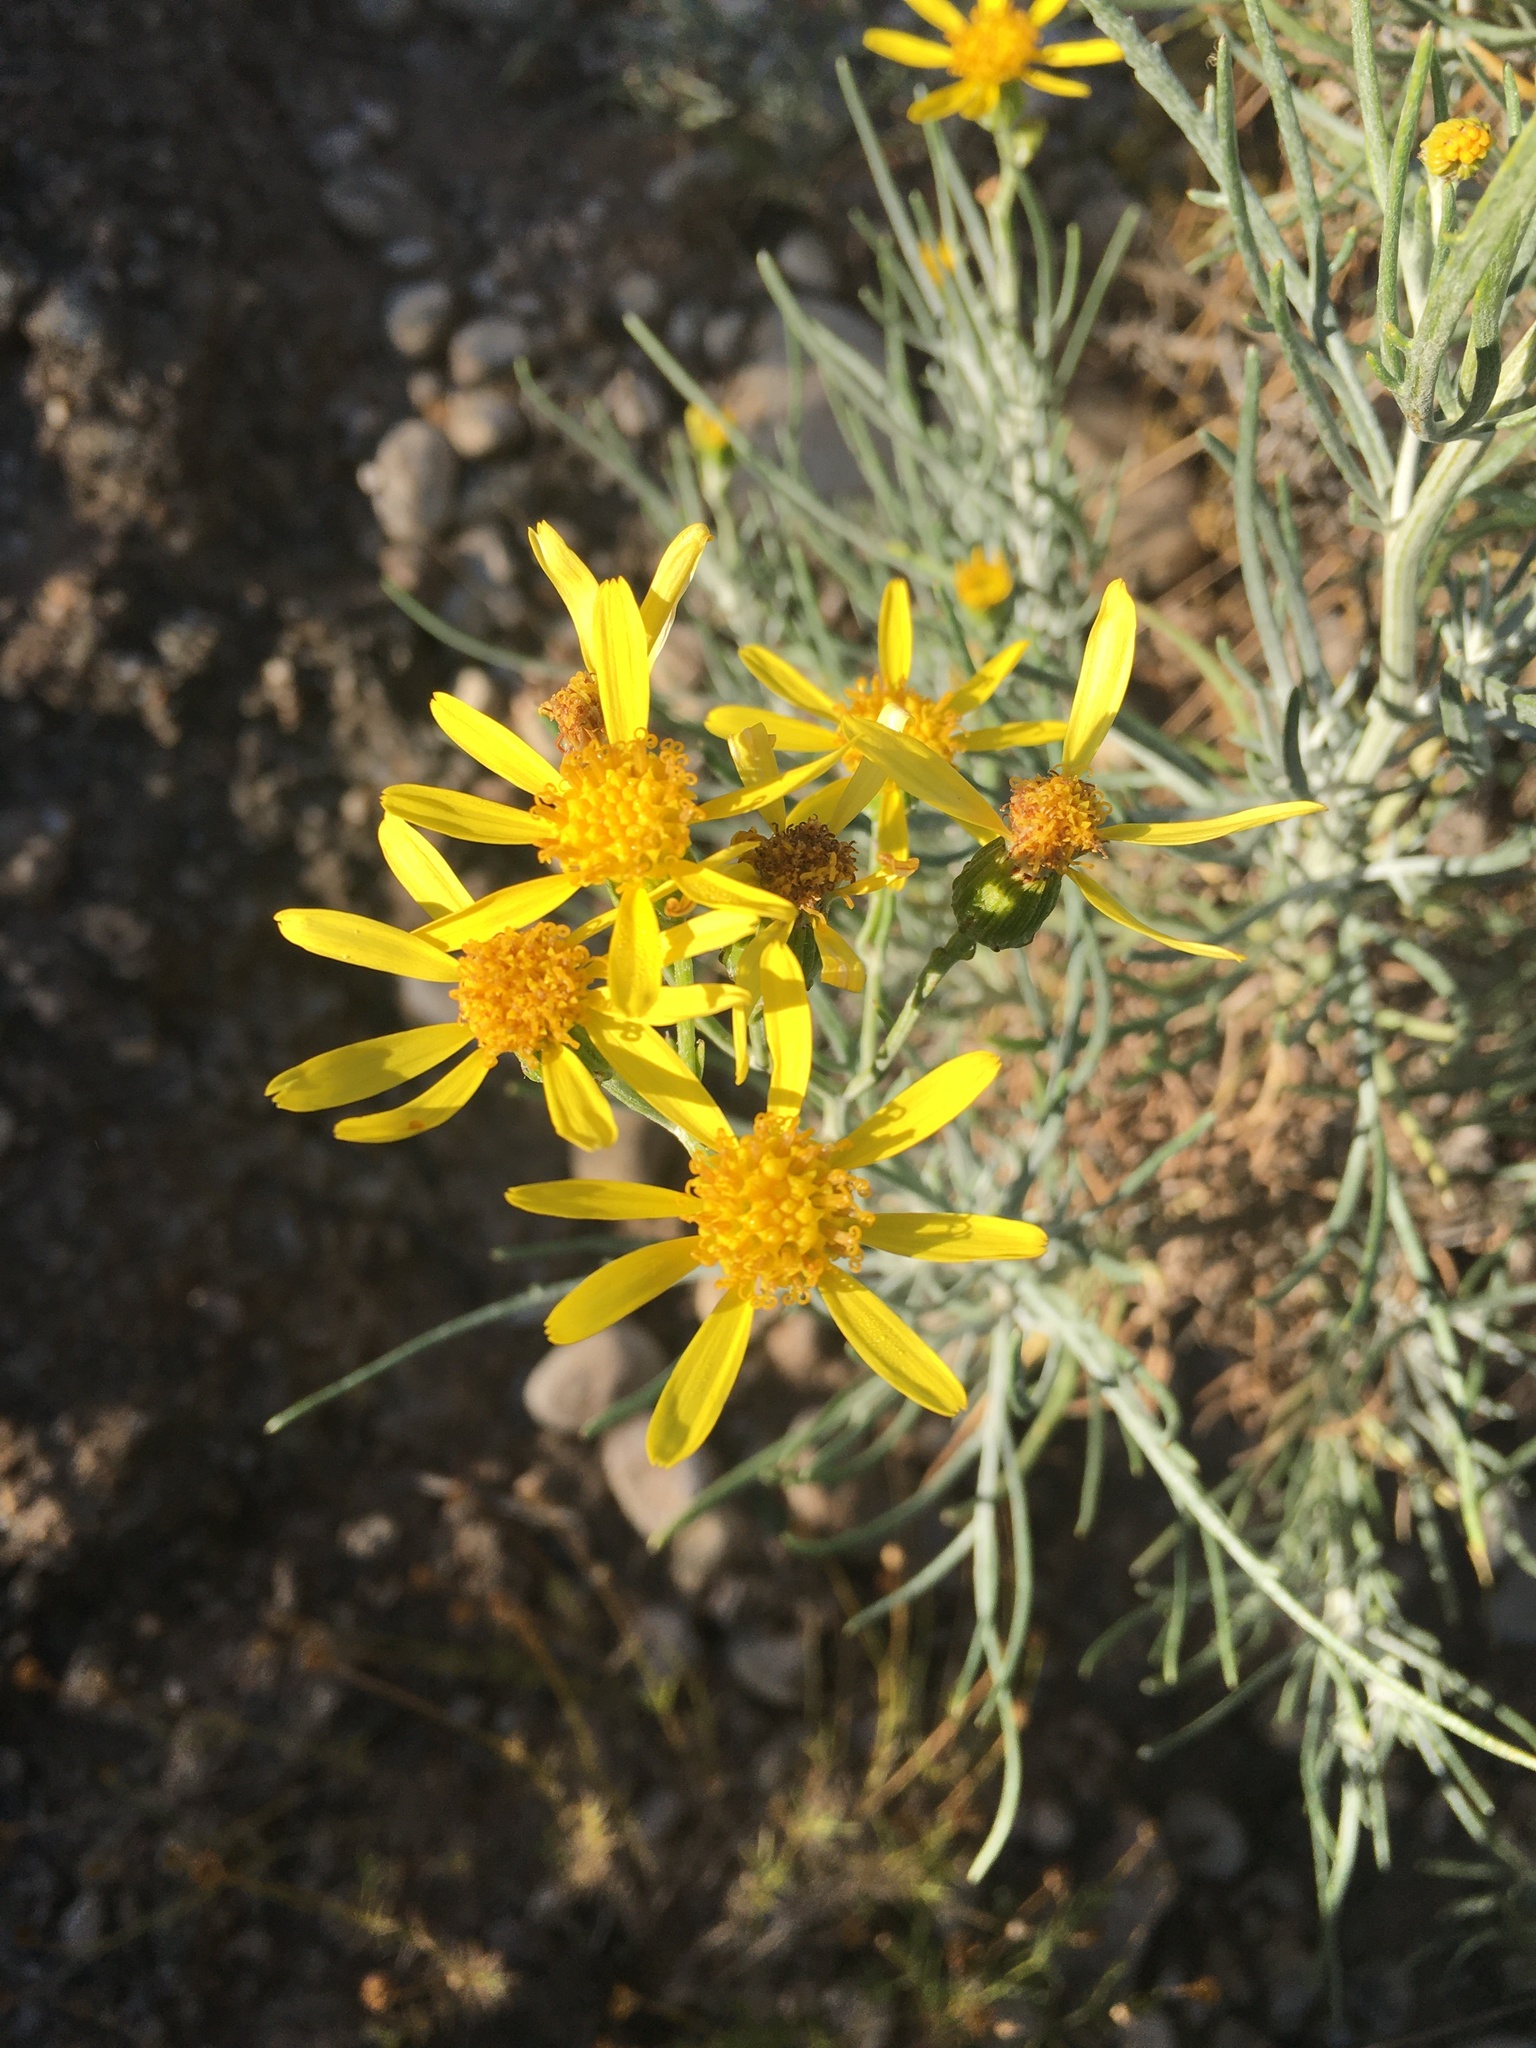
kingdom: Plantae
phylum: Tracheophyta
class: Magnoliopsida
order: Asterales
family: Asteraceae
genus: Senecio
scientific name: Senecio flaccidus
